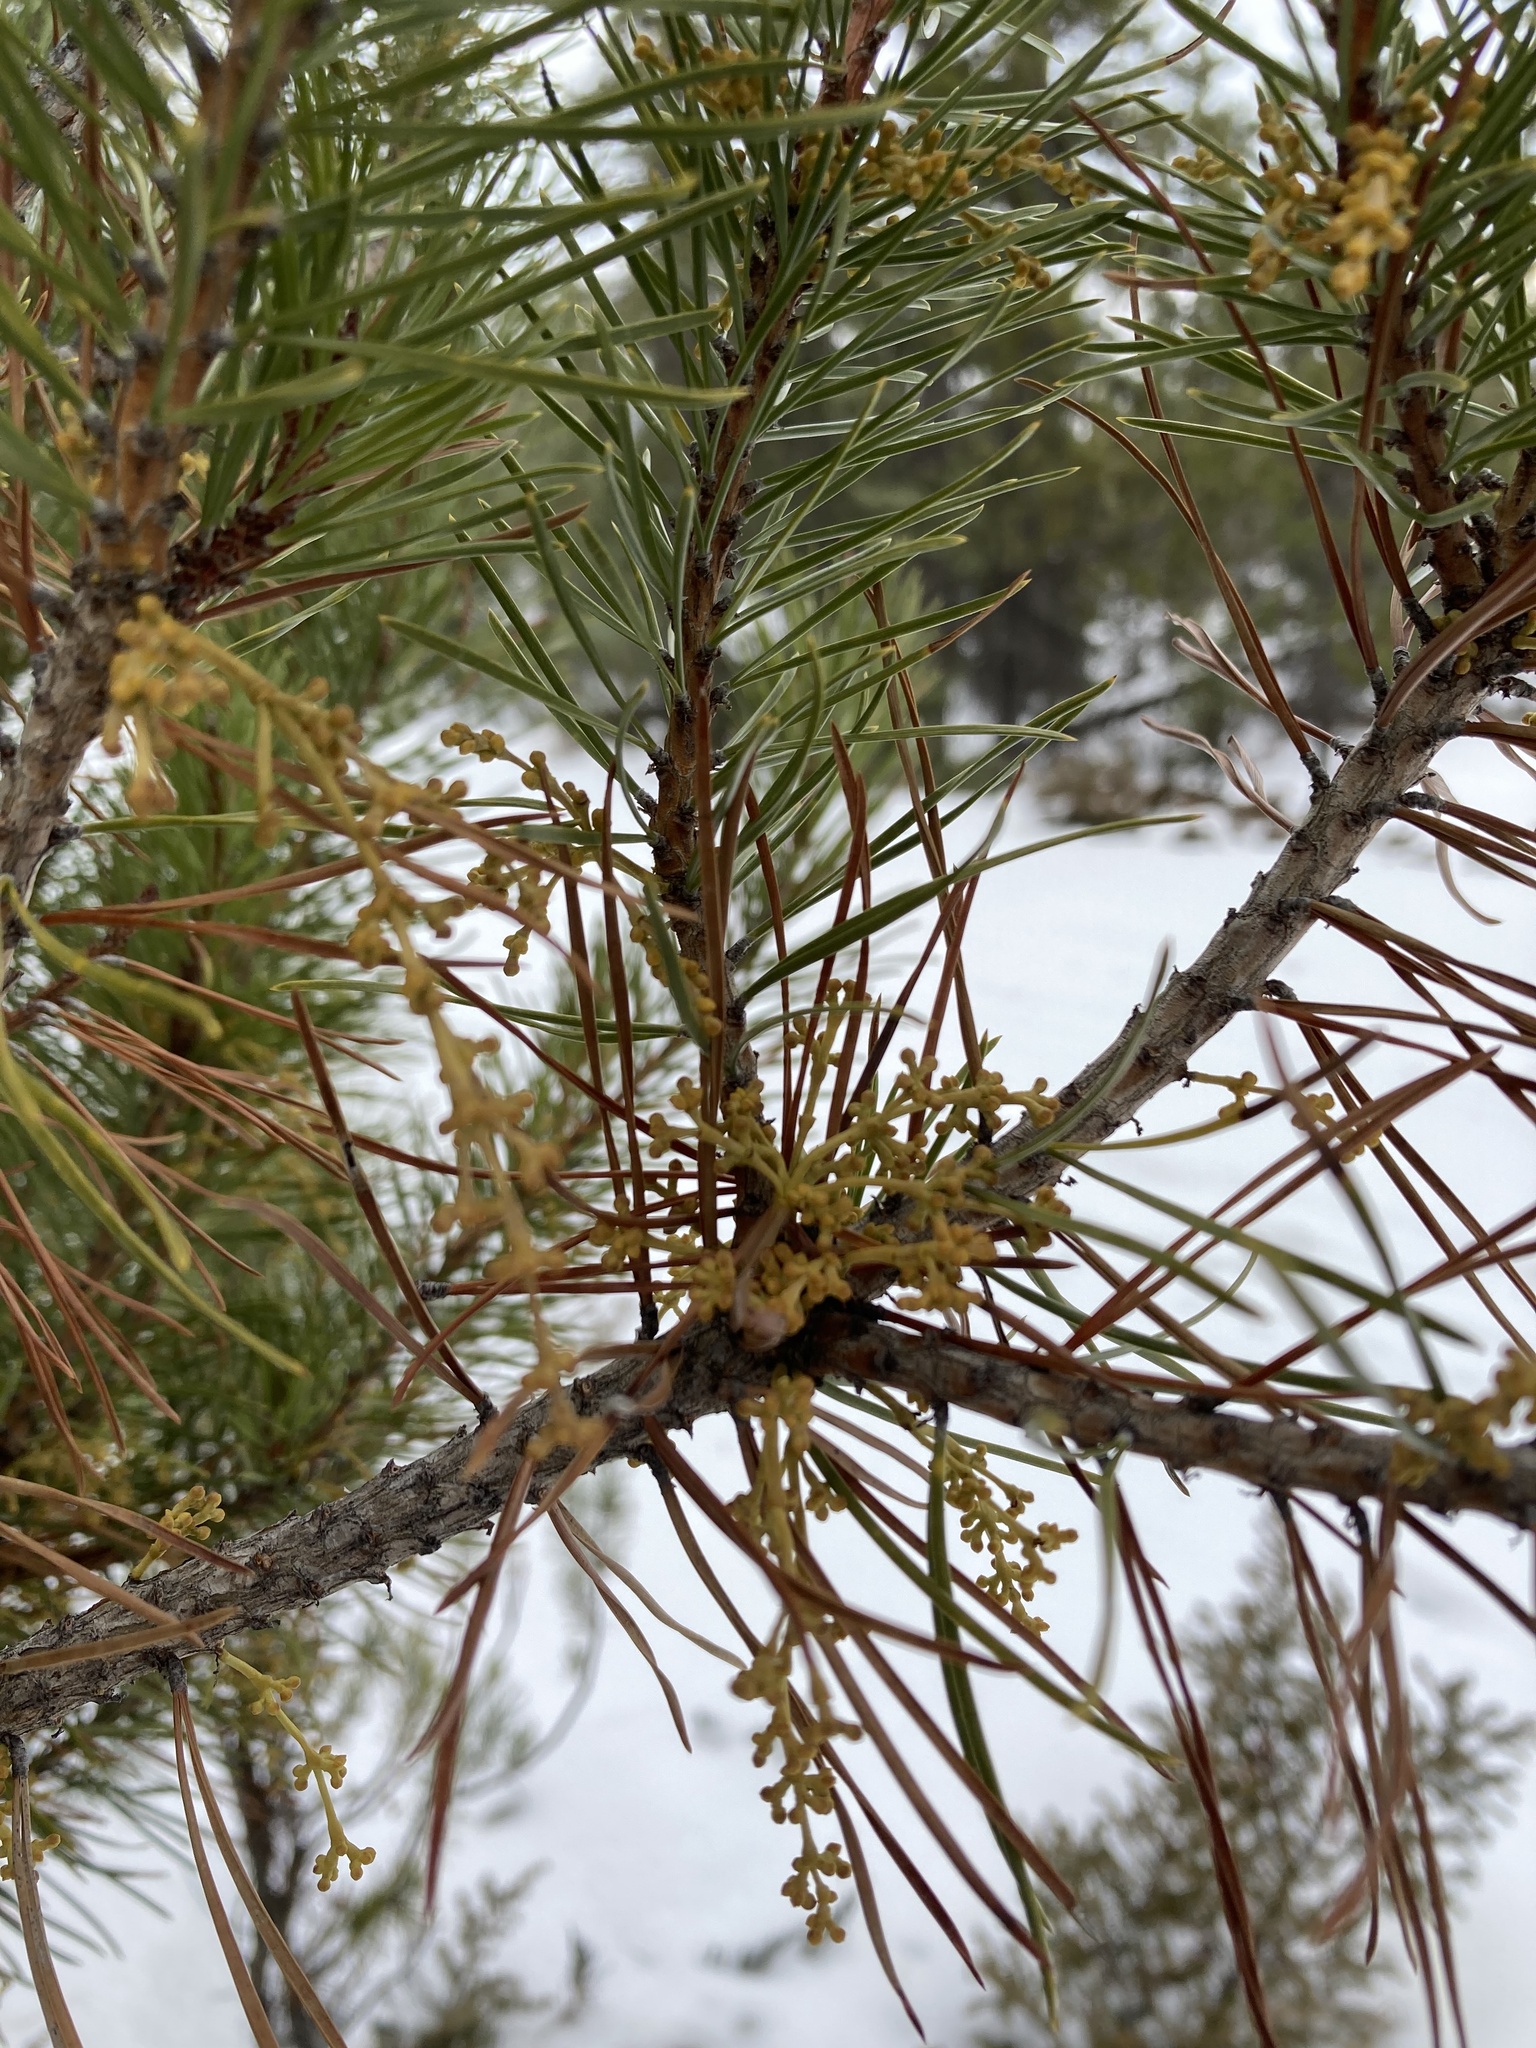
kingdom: Plantae
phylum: Tracheophyta
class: Magnoliopsida
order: Santalales
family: Viscaceae
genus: Arceuthobium
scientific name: Arceuthobium americanum
